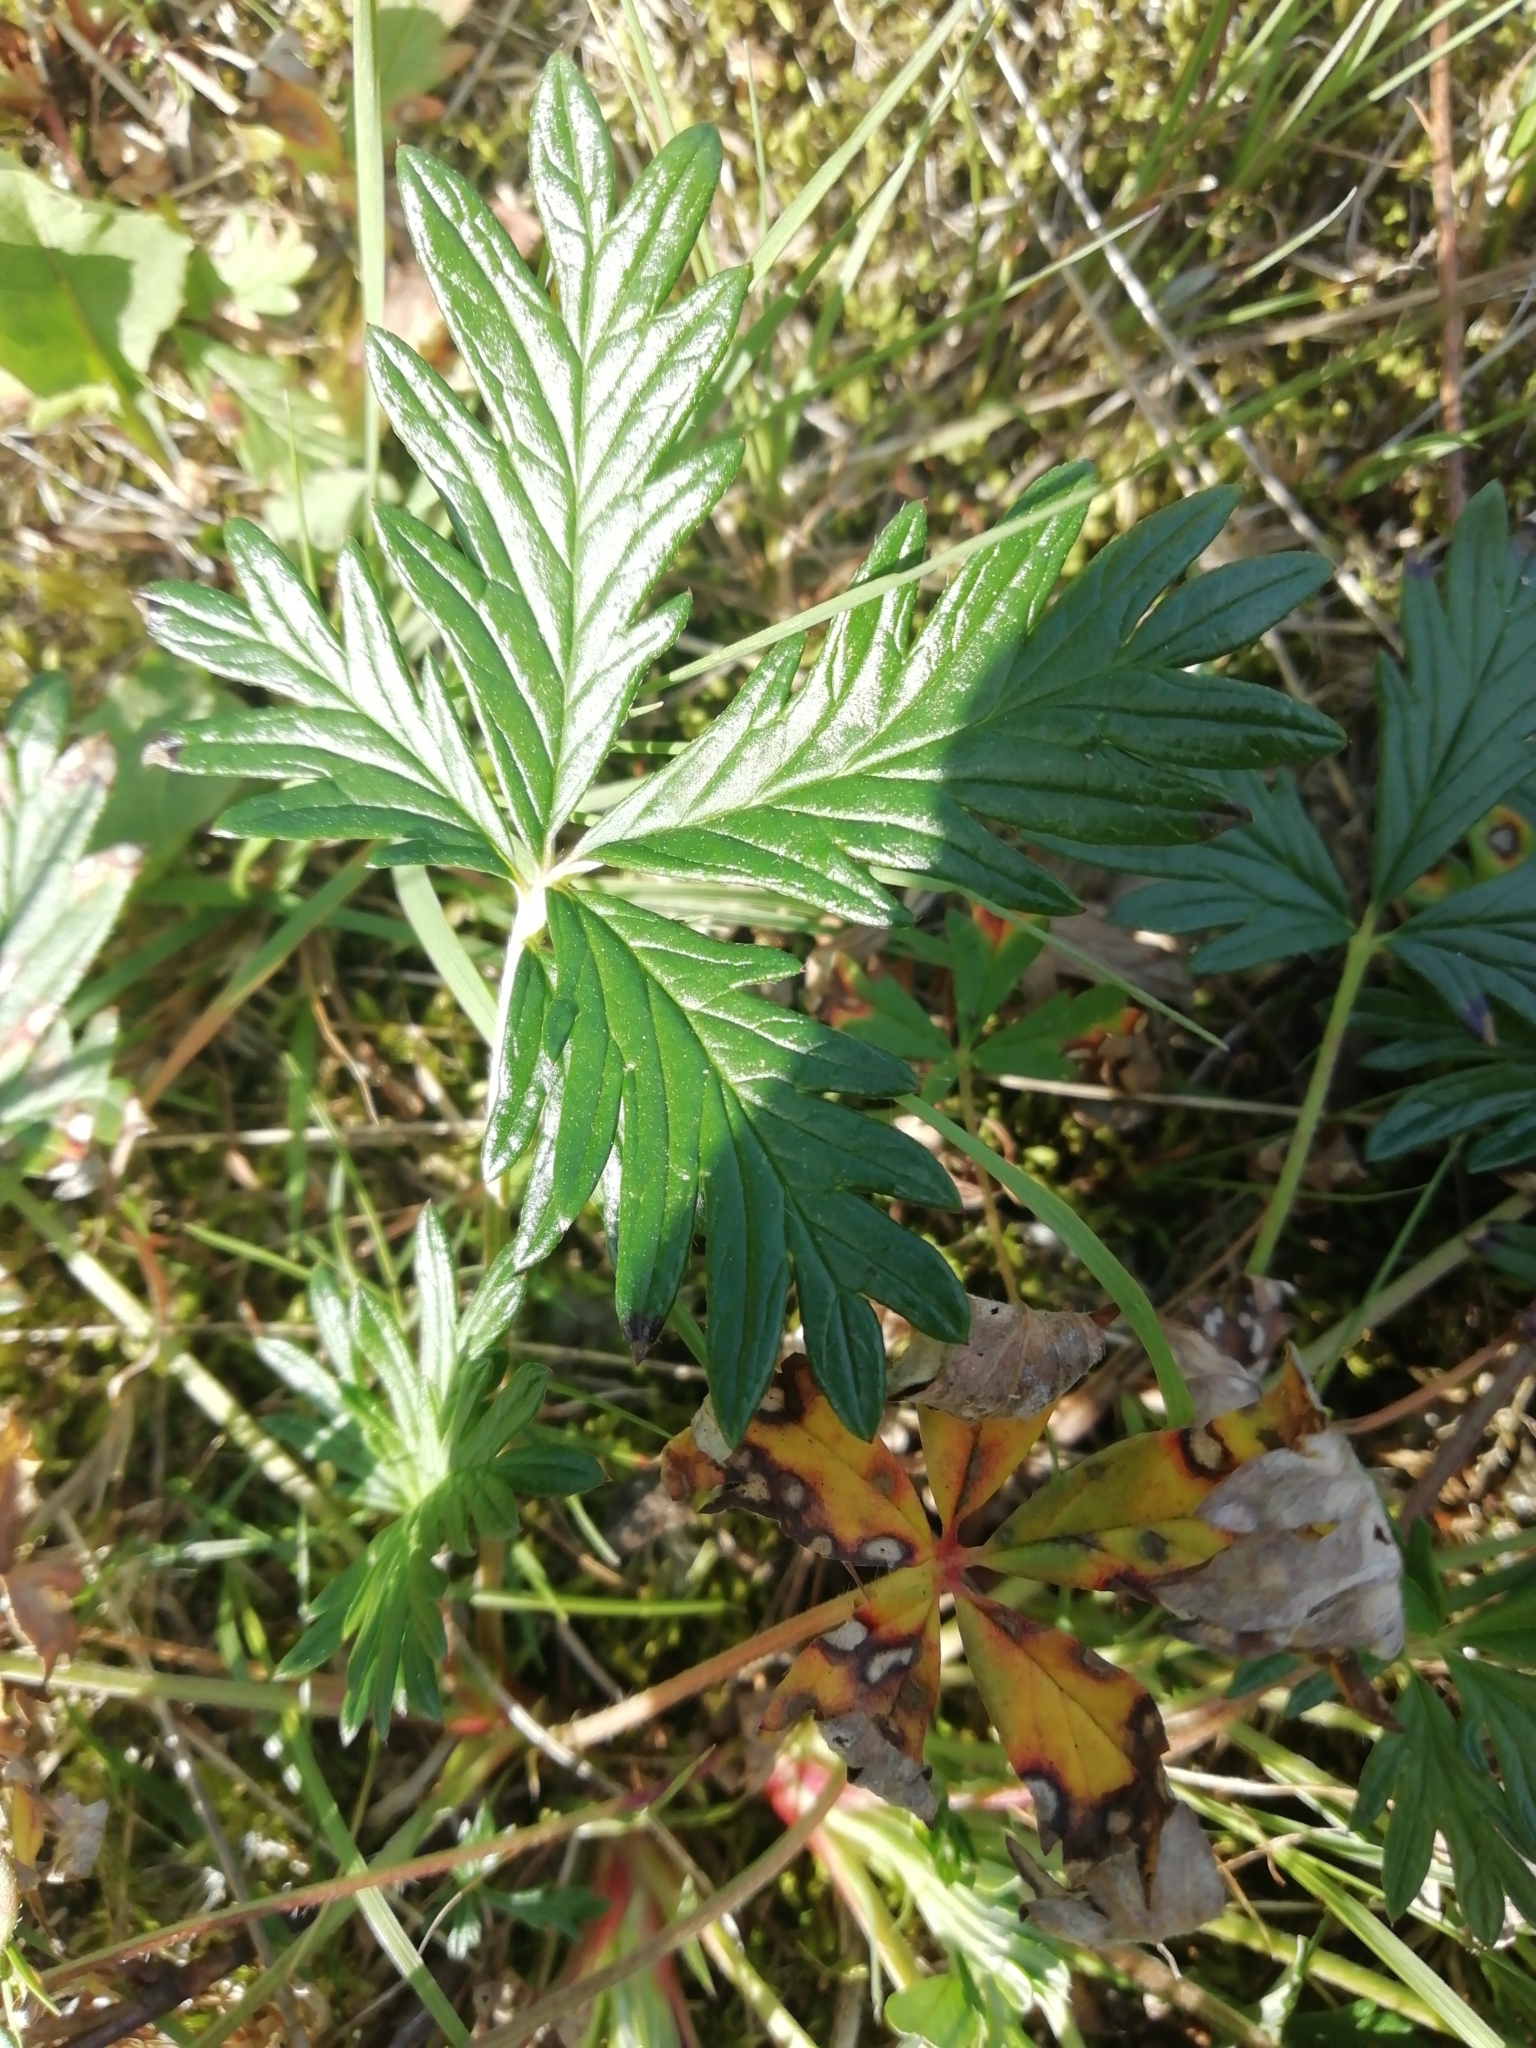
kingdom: Plantae
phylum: Tracheophyta
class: Magnoliopsida
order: Rosales
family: Rosaceae
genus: Potentilla
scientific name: Potentilla argentea
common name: Hoary cinquefoil
